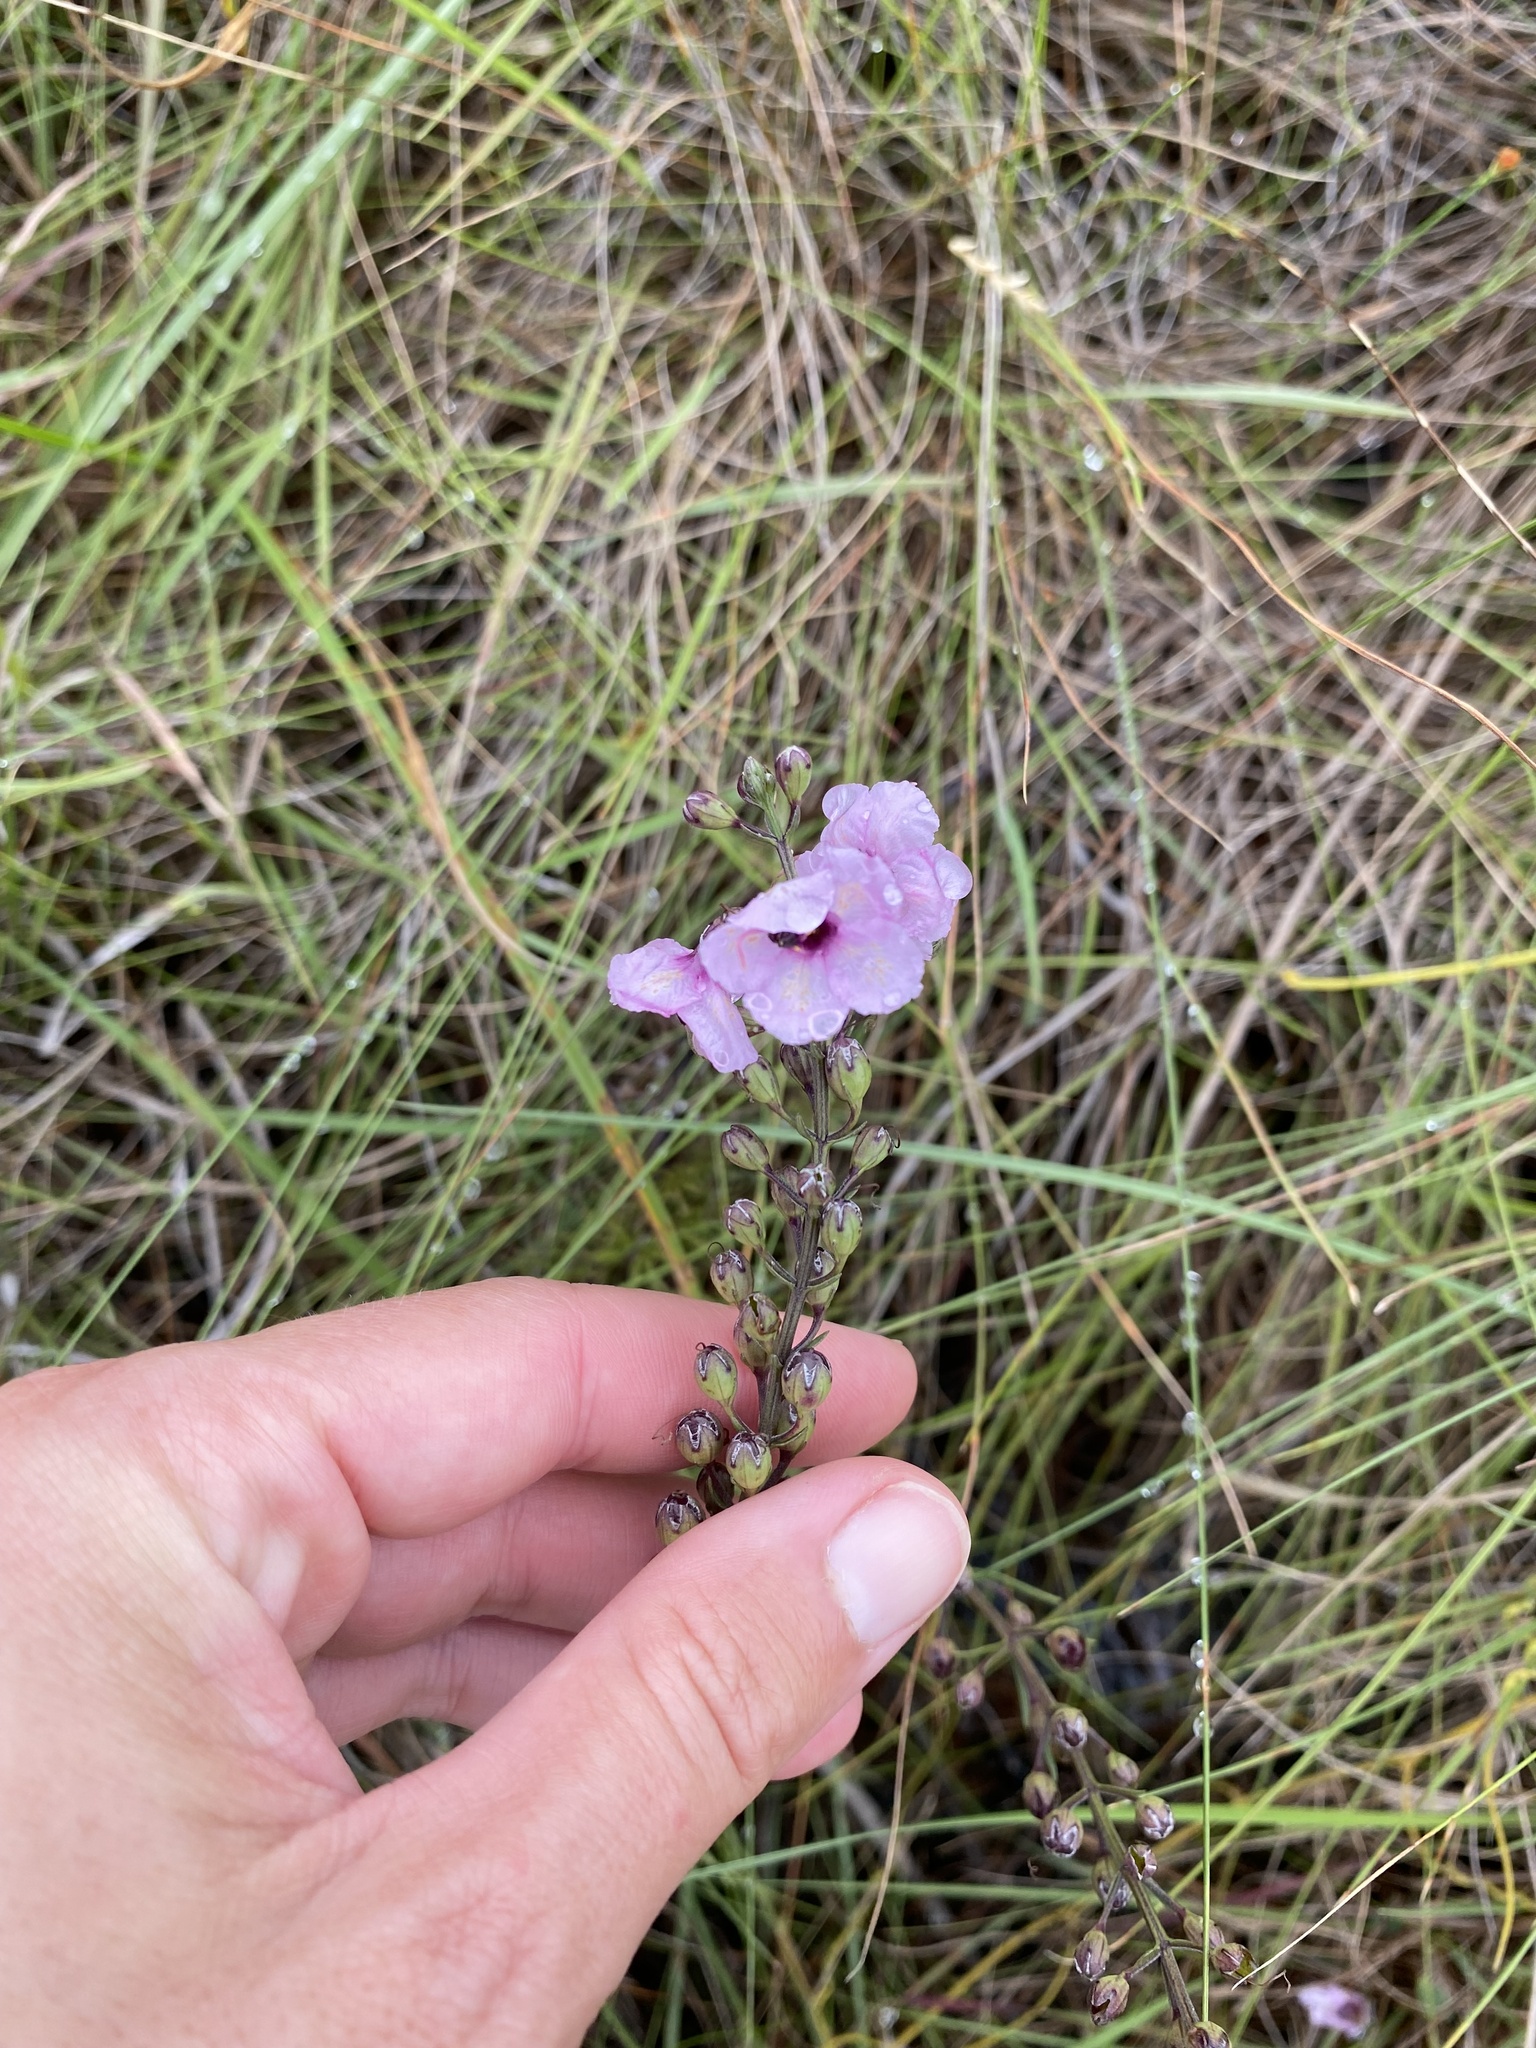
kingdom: Plantae
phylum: Tracheophyta
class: Magnoliopsida
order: Lamiales
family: Orobanchaceae
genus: Sopubia
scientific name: Sopubia simplex
